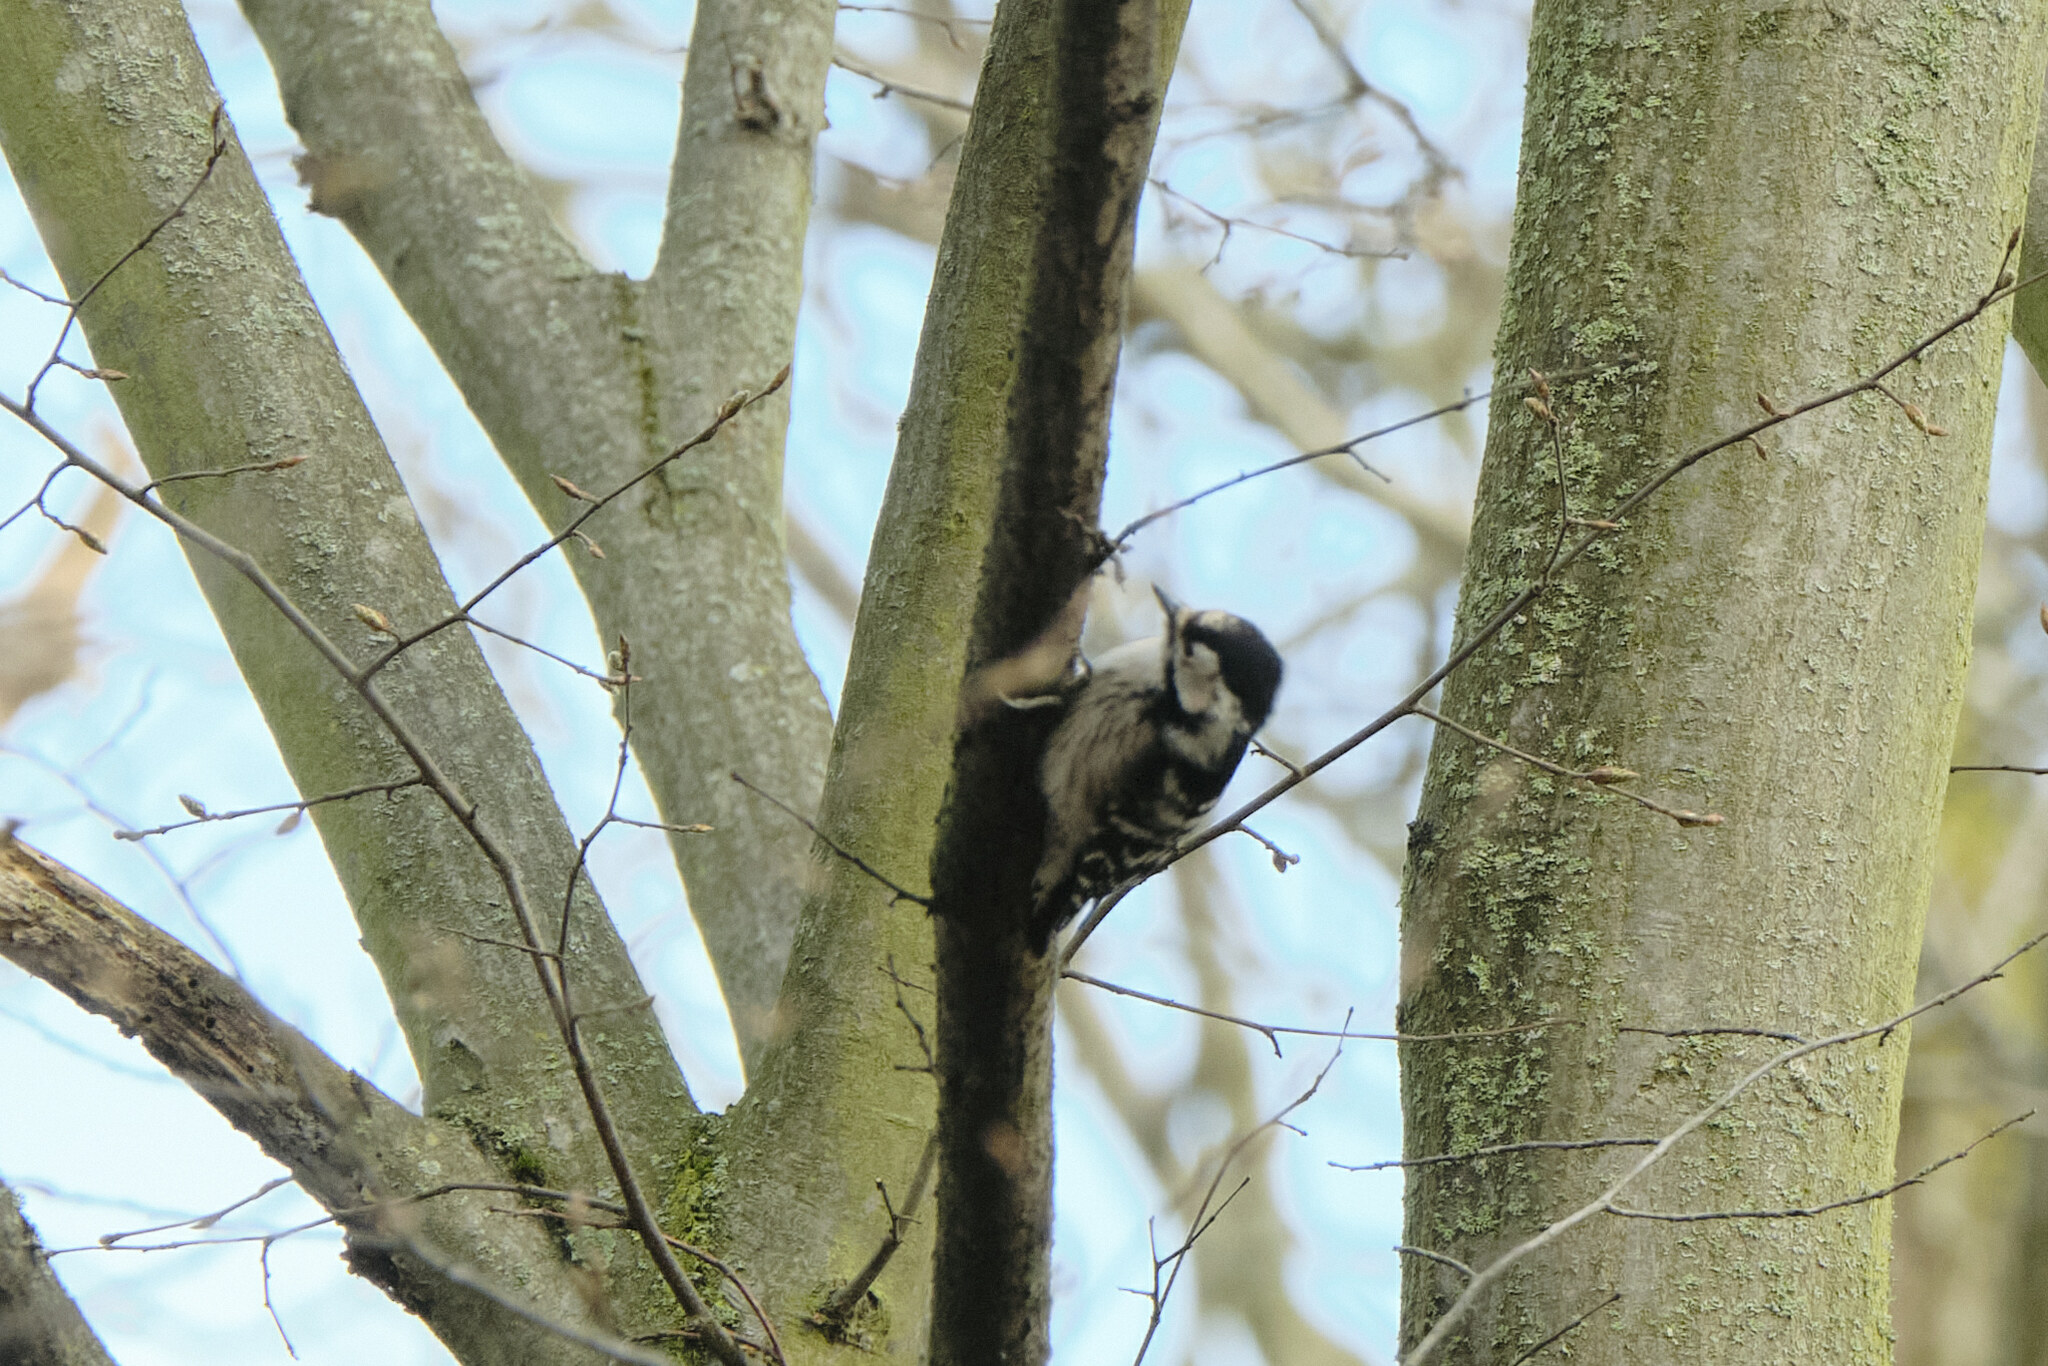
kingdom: Animalia
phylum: Chordata
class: Aves
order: Piciformes
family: Picidae
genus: Dryobates
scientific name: Dryobates minor
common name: Lesser spotted woodpecker
